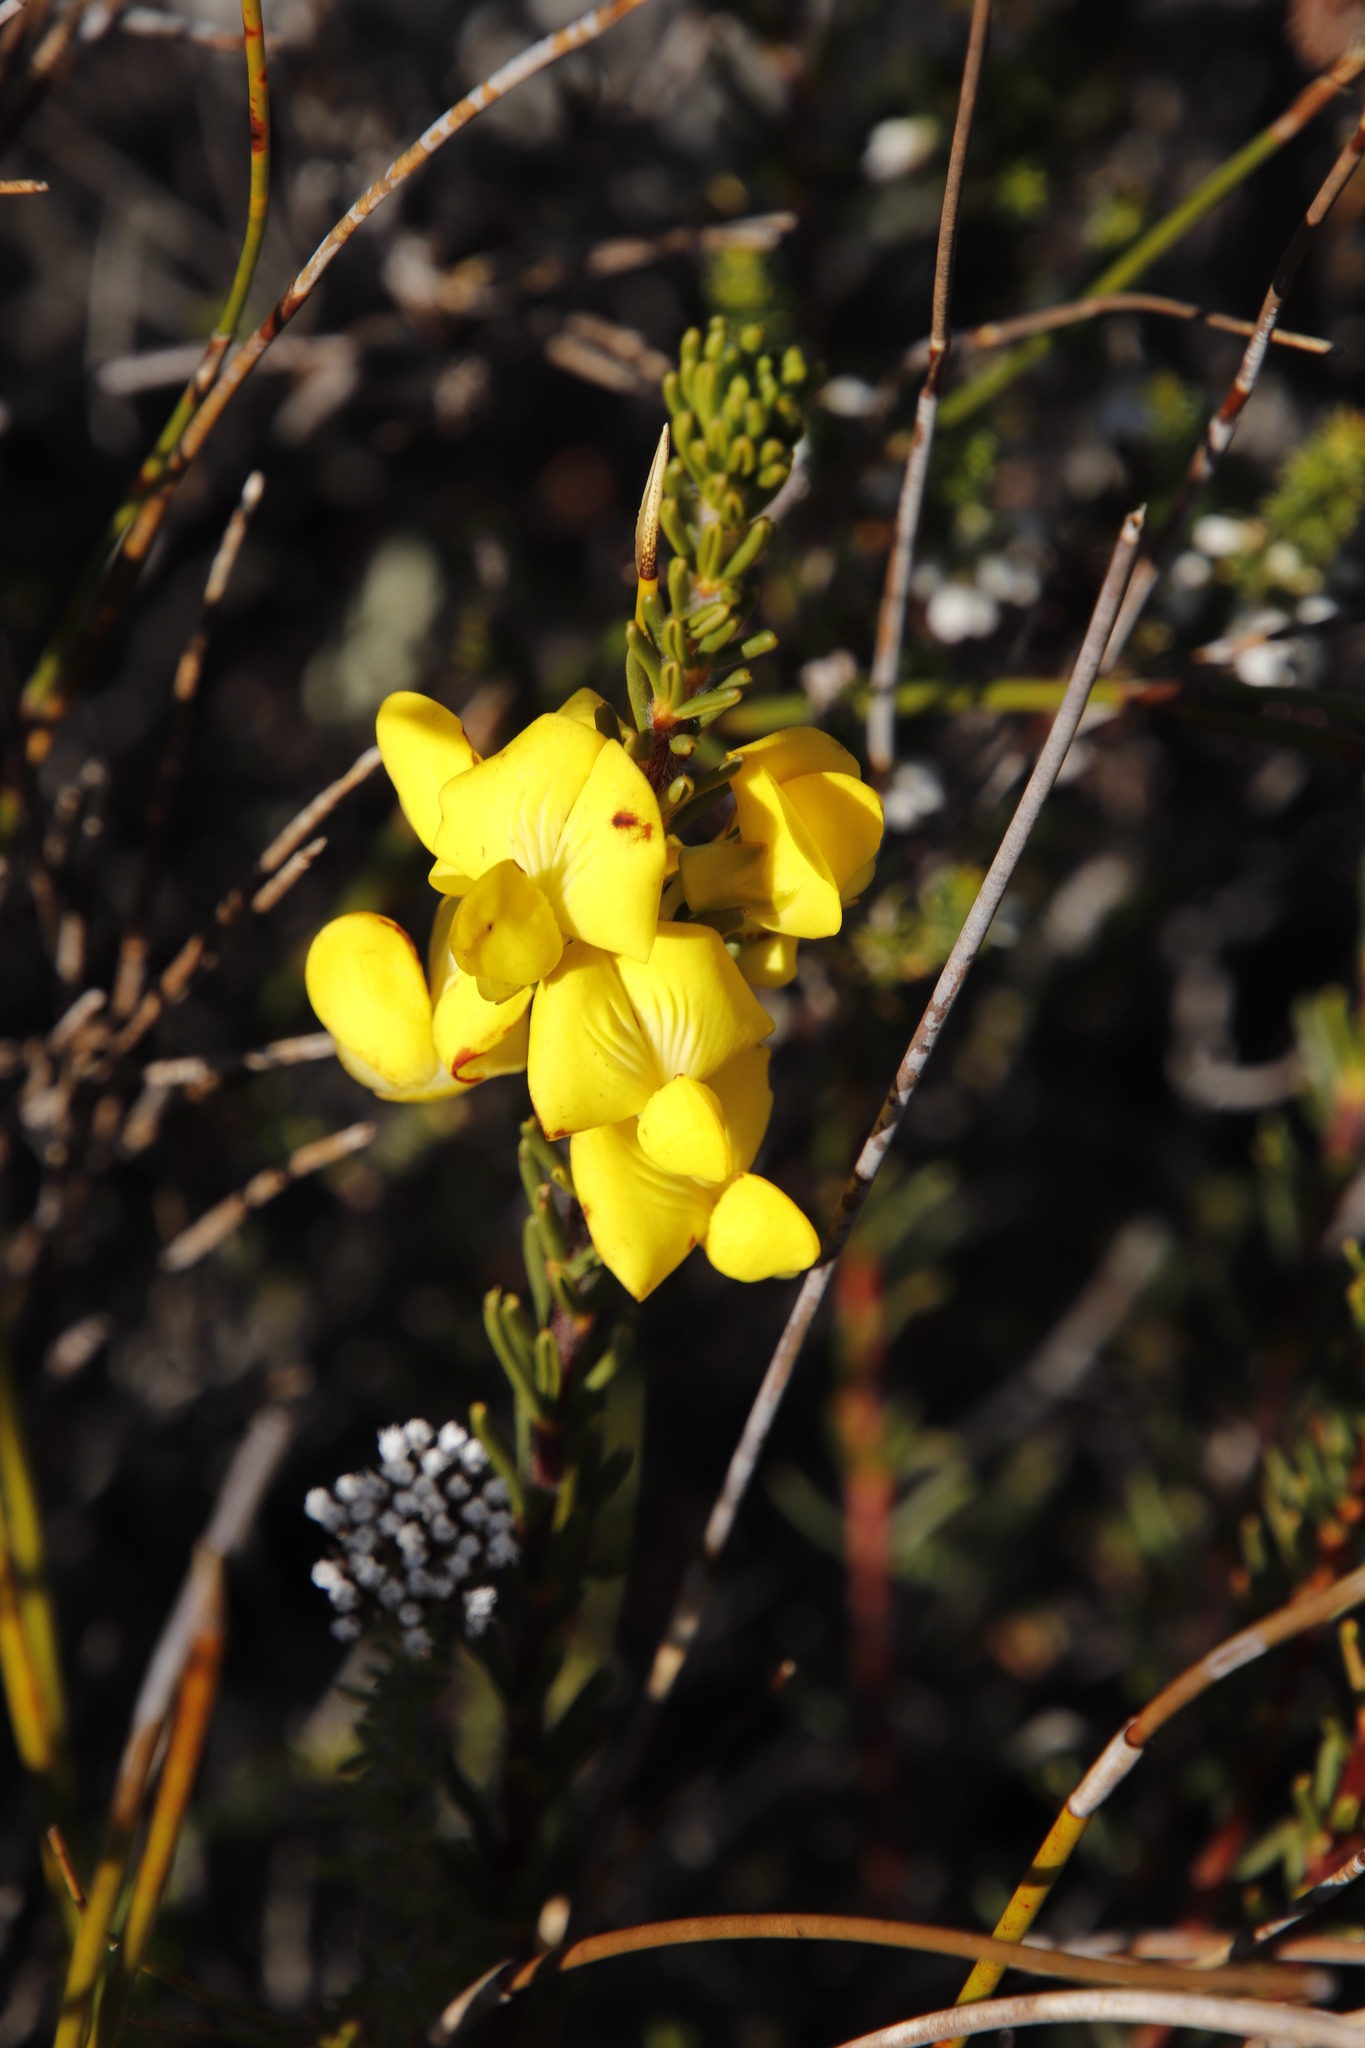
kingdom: Plantae
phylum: Tracheophyta
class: Magnoliopsida
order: Fabales
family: Fabaceae
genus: Cyclopia
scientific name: Cyclopia galioides
